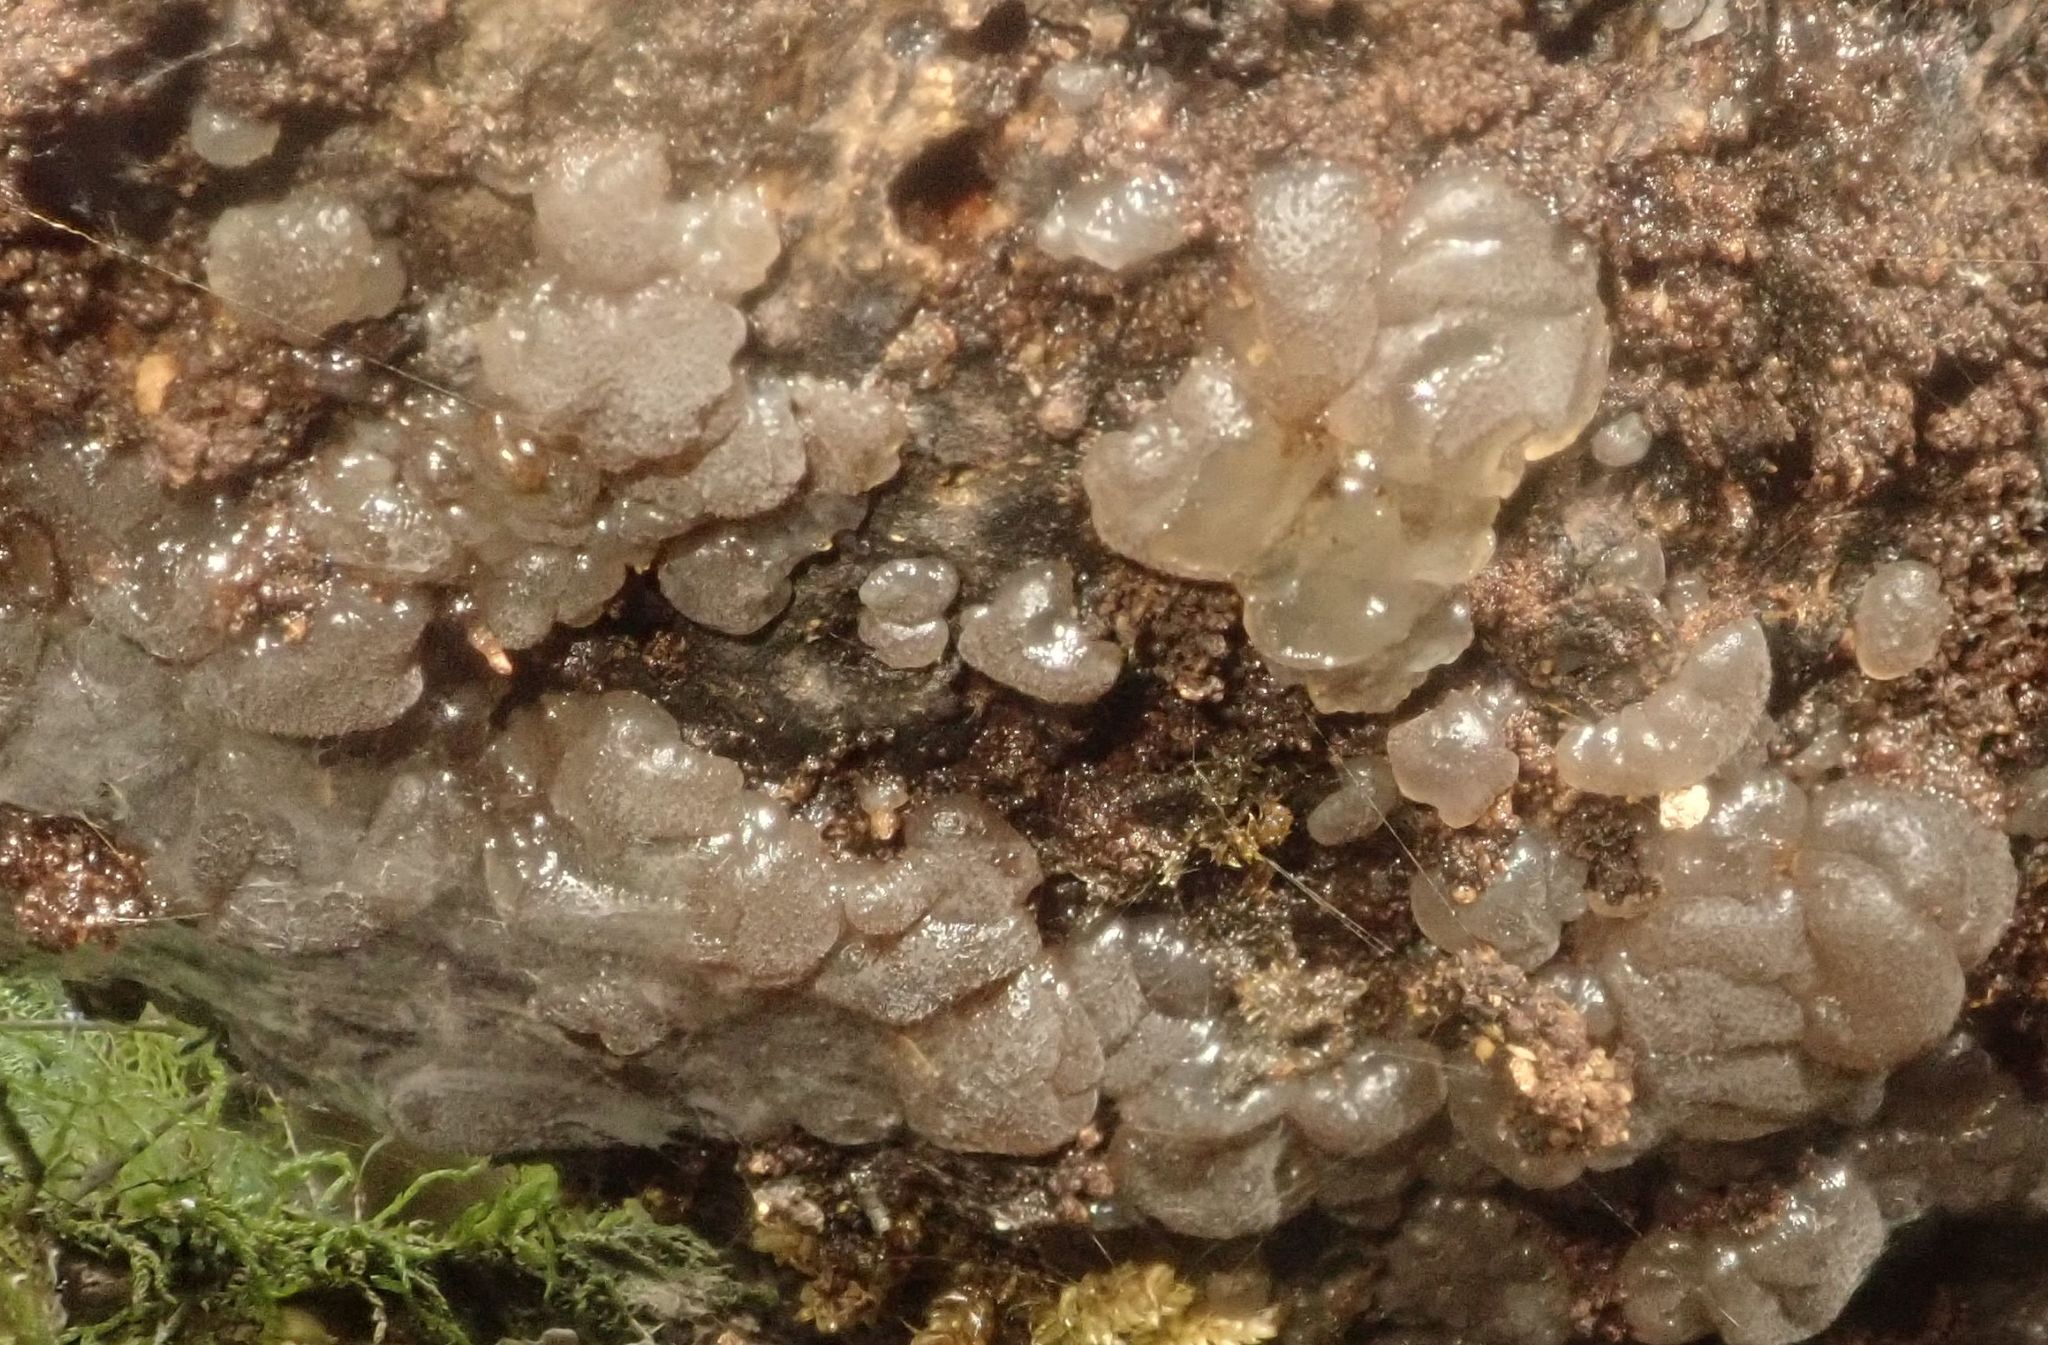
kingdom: Fungi
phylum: Basidiomycota
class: Agaricomycetes
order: Auriculariales
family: Auriculariaceae
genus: Tremellochaete
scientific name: Tremellochaete
